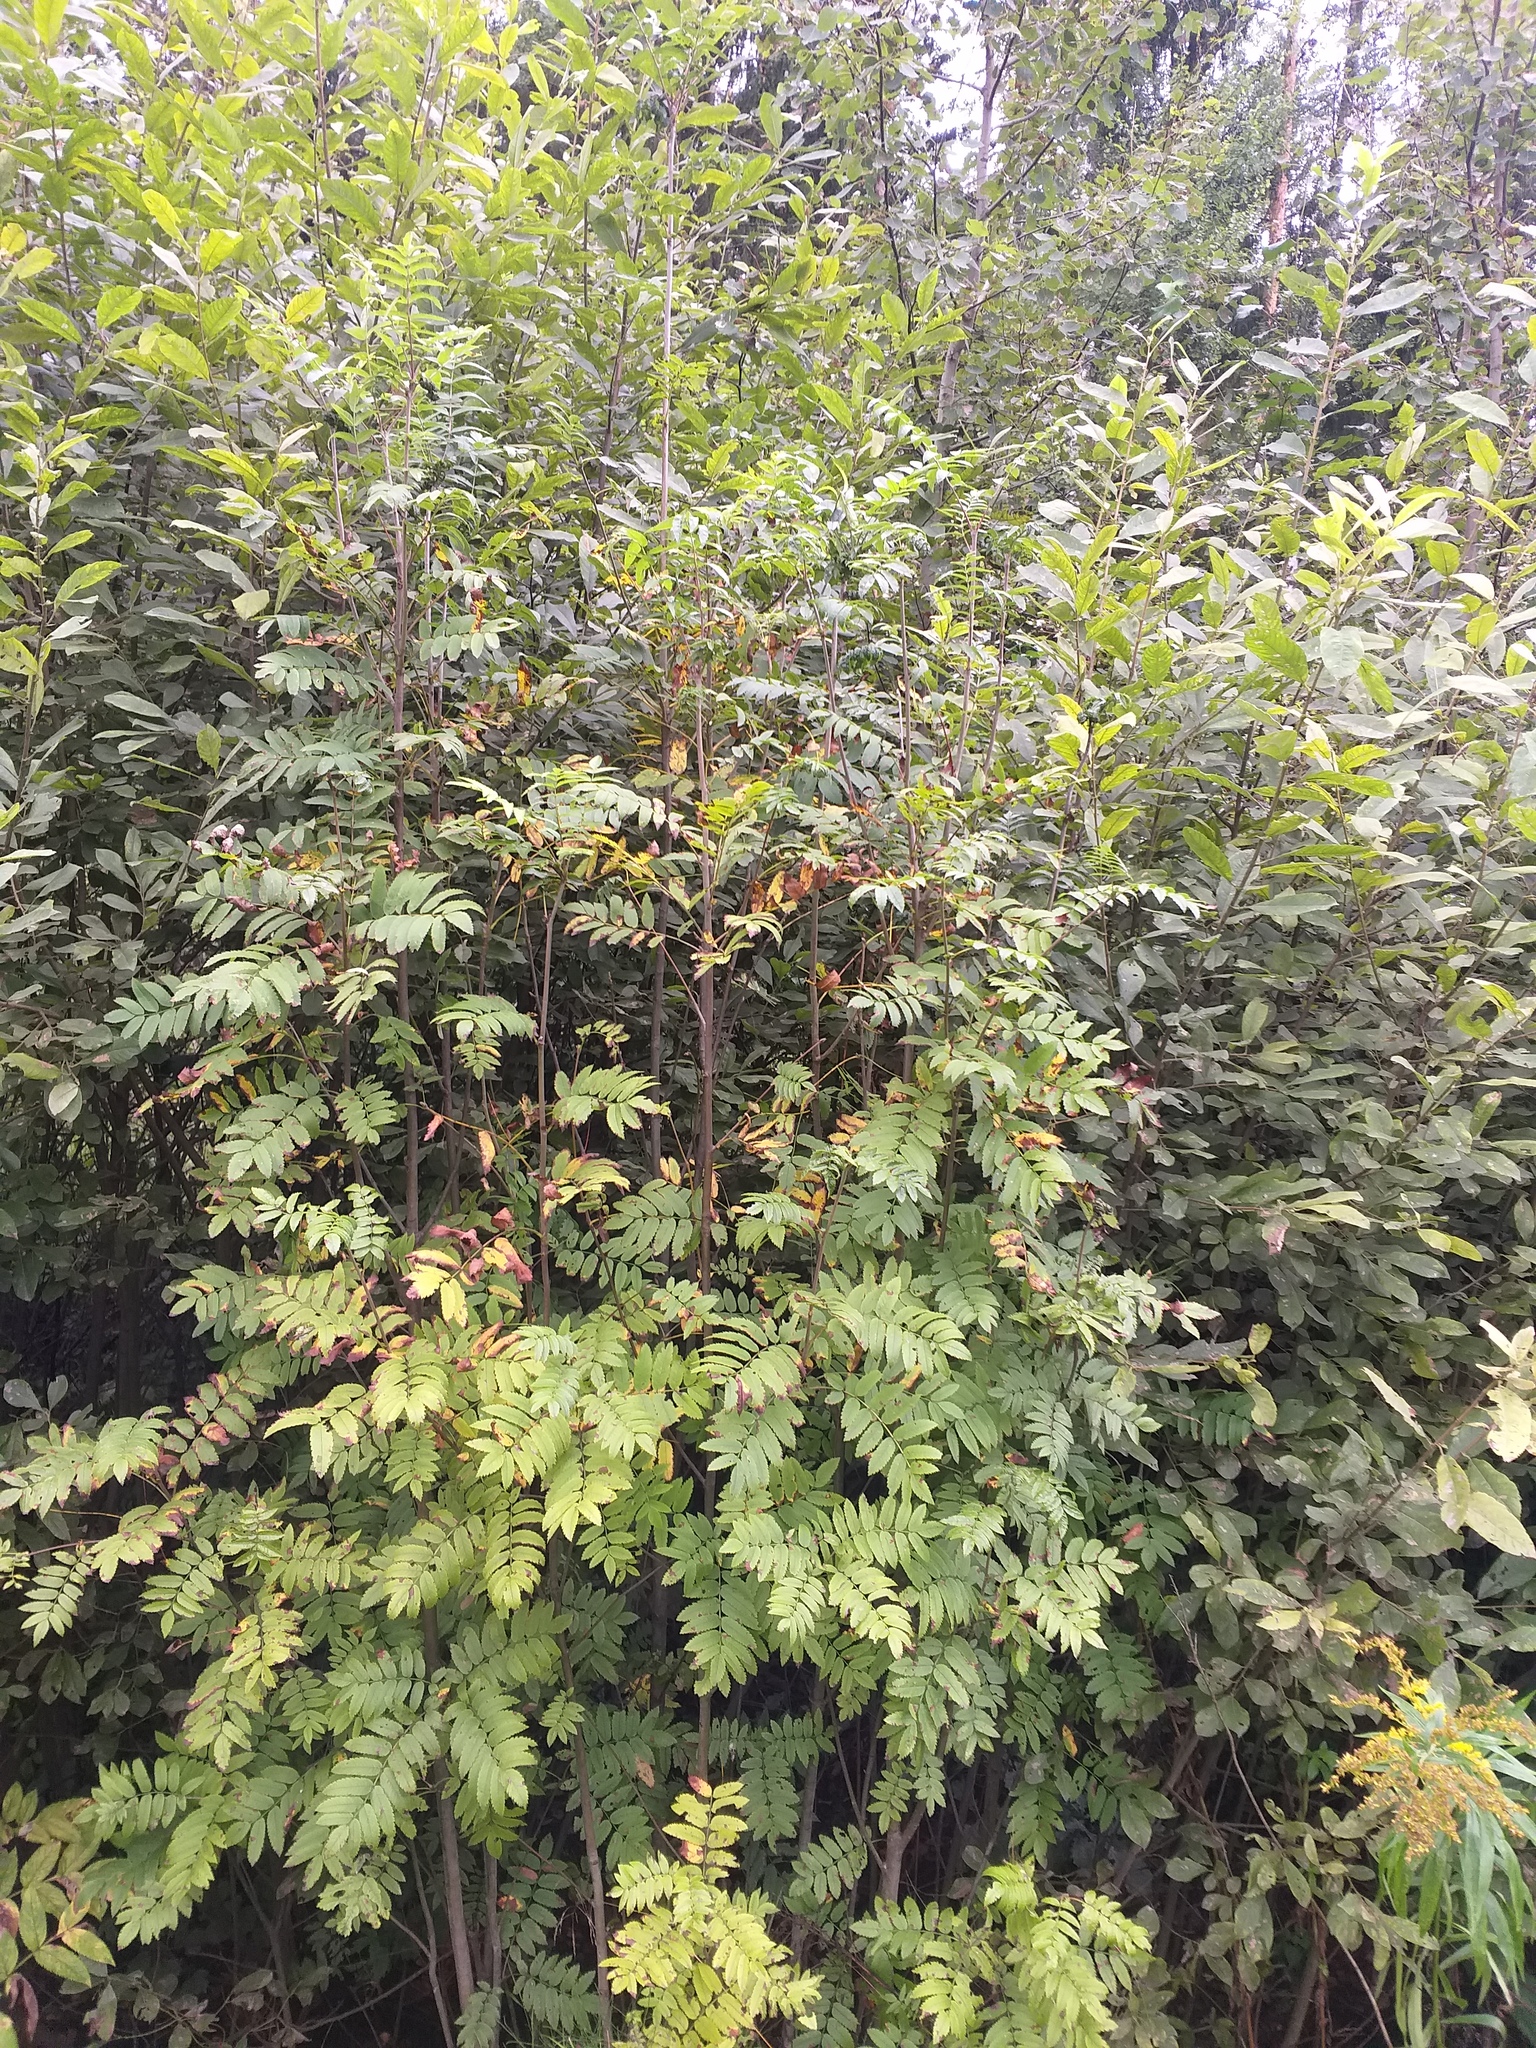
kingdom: Plantae
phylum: Tracheophyta
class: Magnoliopsida
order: Rosales
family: Rosaceae
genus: Sorbus
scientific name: Sorbus aucuparia
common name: Rowan
